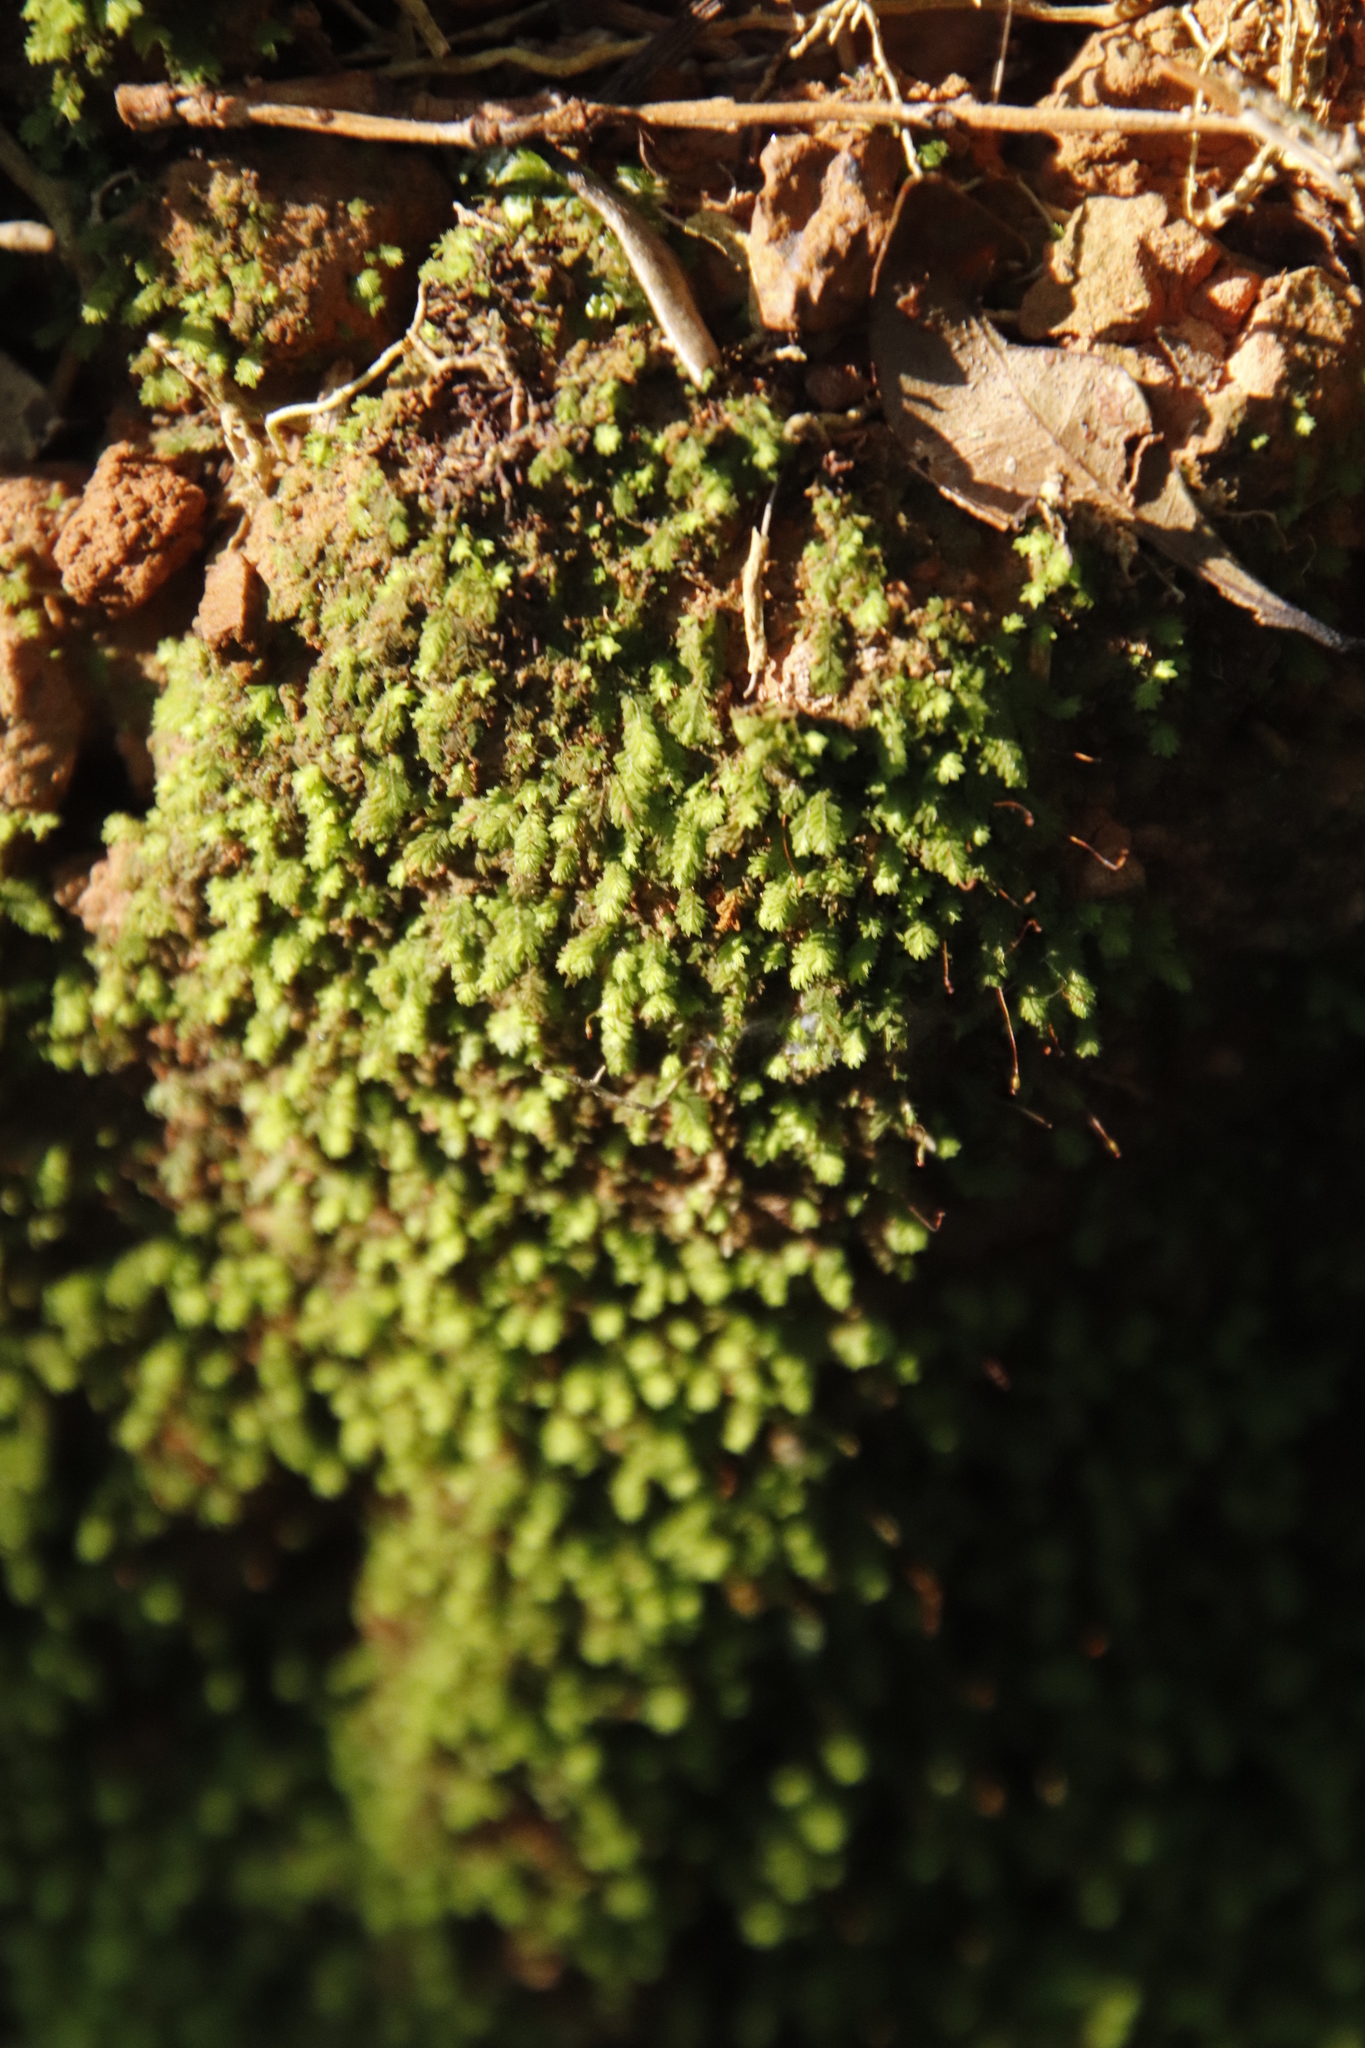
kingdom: Plantae
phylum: Bryophyta
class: Bryopsida
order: Dicranales
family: Fissidentaceae
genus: Fissidens
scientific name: Fissidens ovatus
